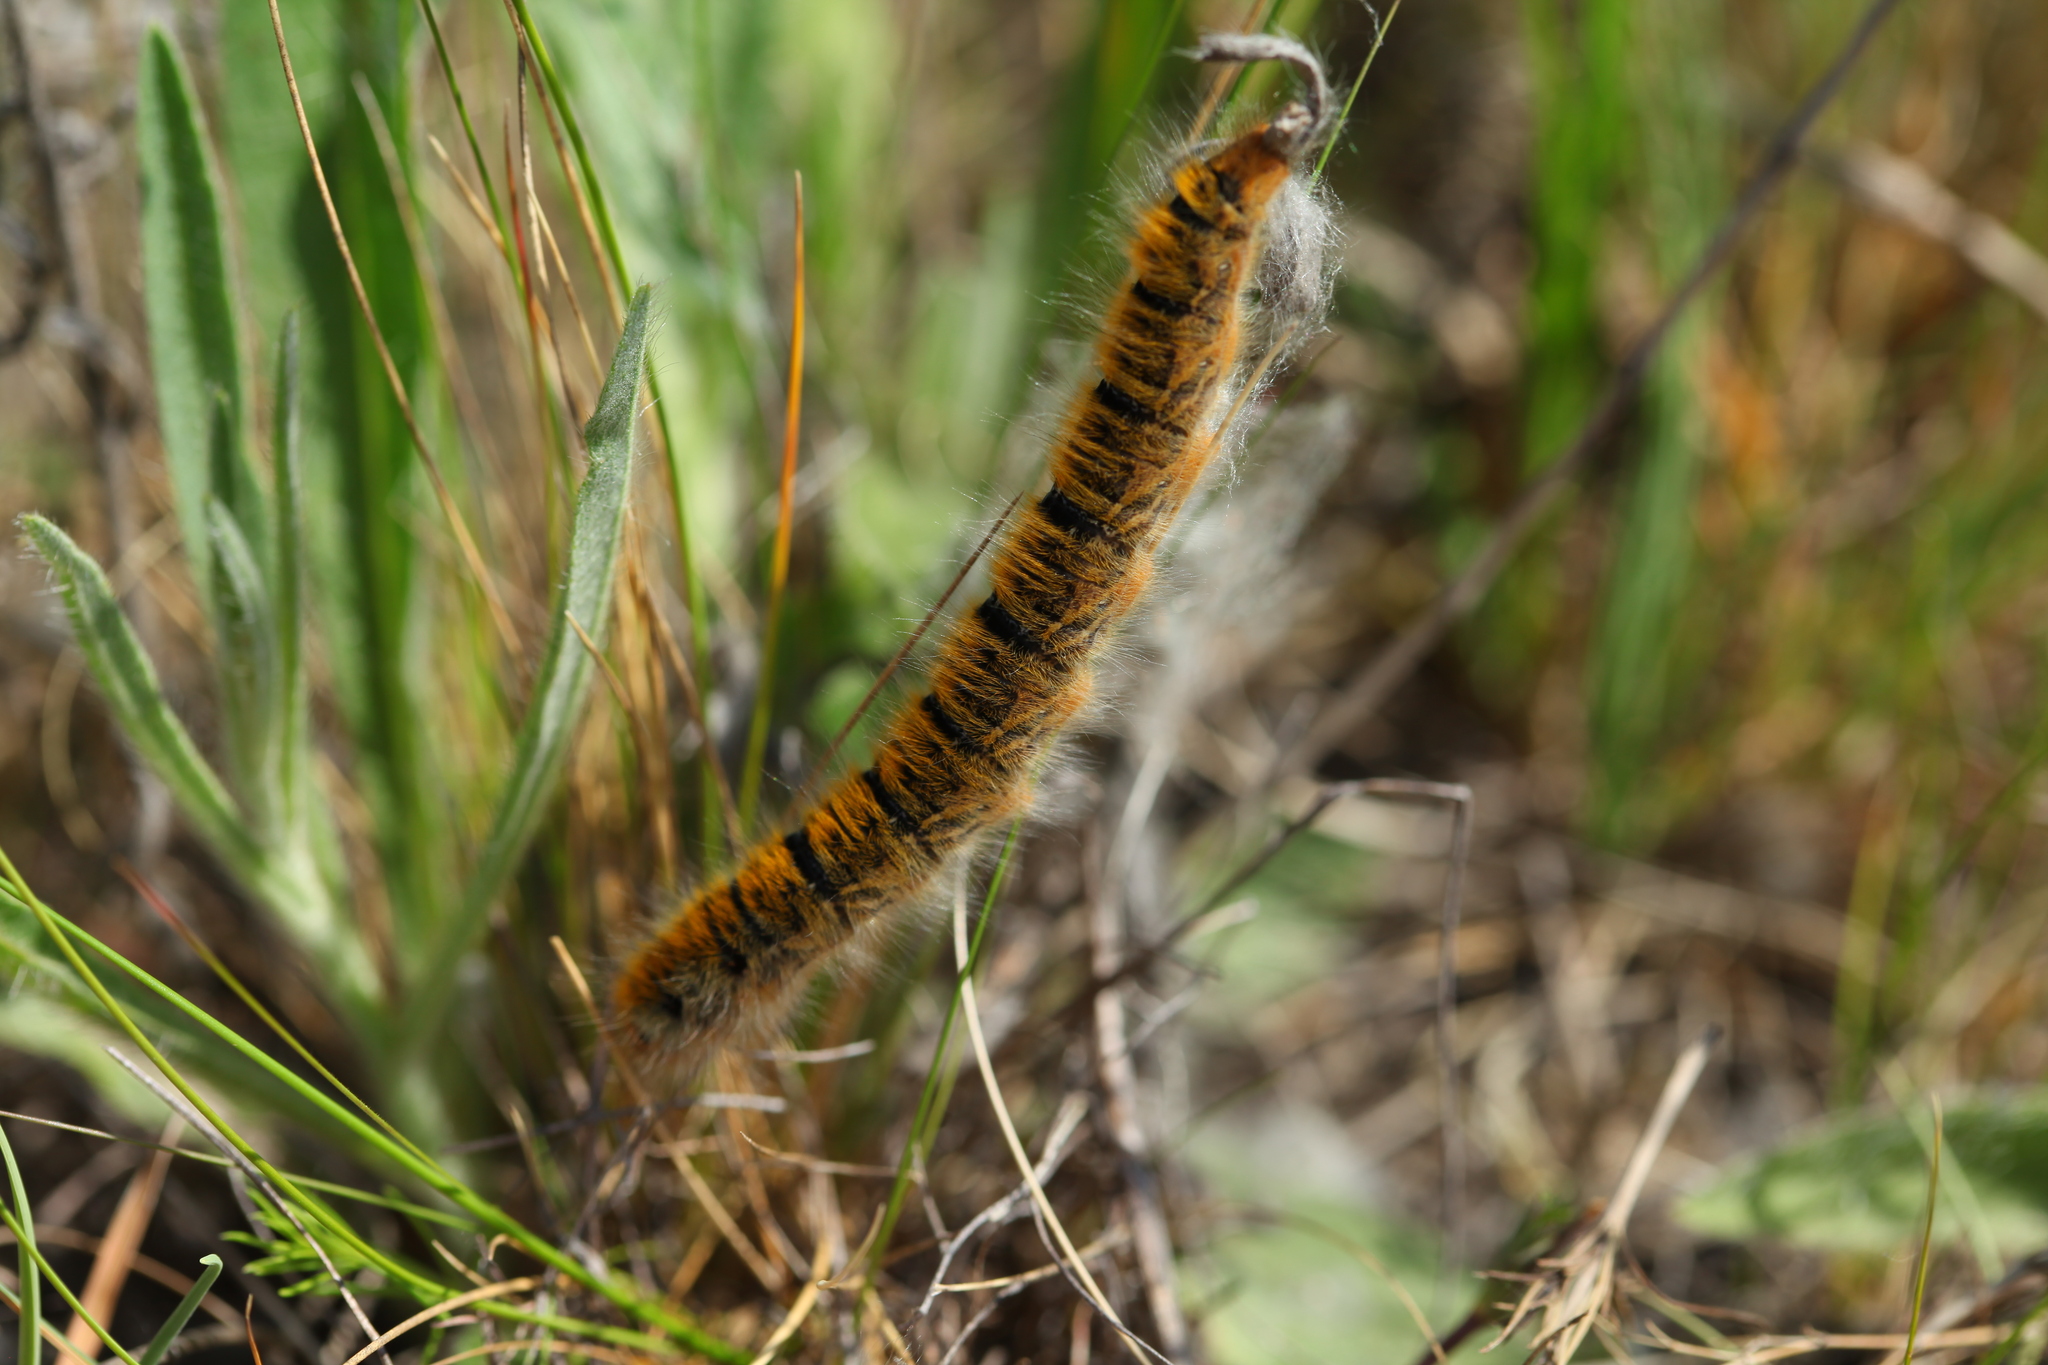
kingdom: Animalia
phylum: Arthropoda
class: Insecta
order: Lepidoptera
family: Lasiocampidae
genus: Lasiocampa
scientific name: Lasiocampa trifolii
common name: Grass eggar
